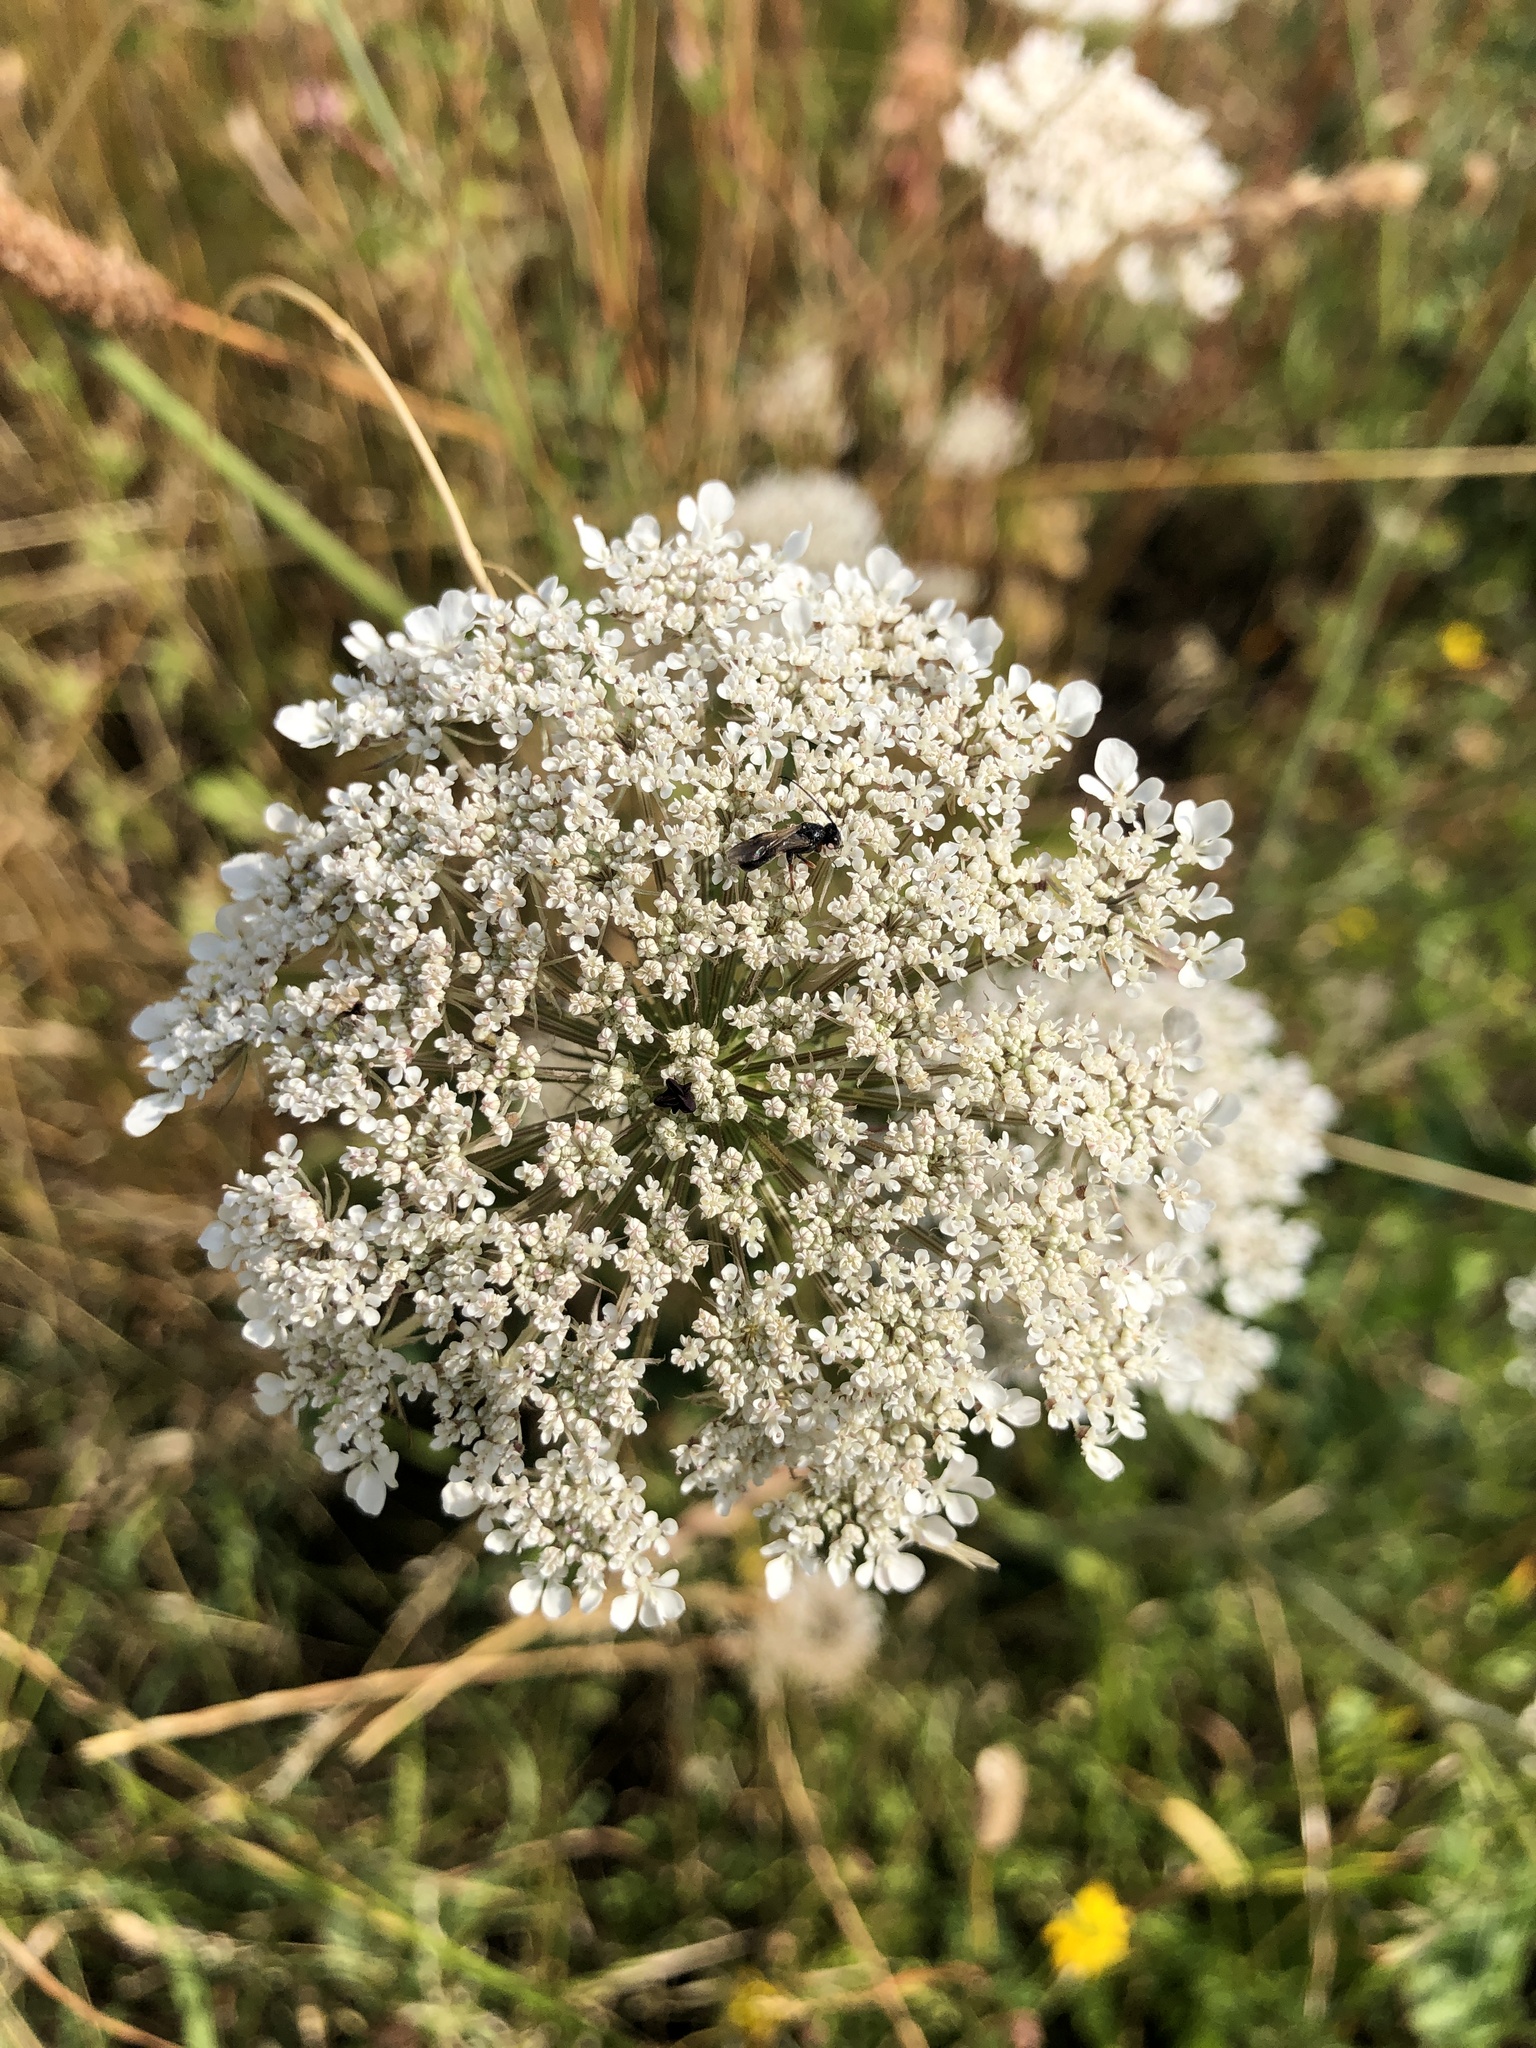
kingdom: Plantae
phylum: Tracheophyta
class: Magnoliopsida
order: Apiales
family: Apiaceae
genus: Daucus
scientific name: Daucus carota
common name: Wild carrot
